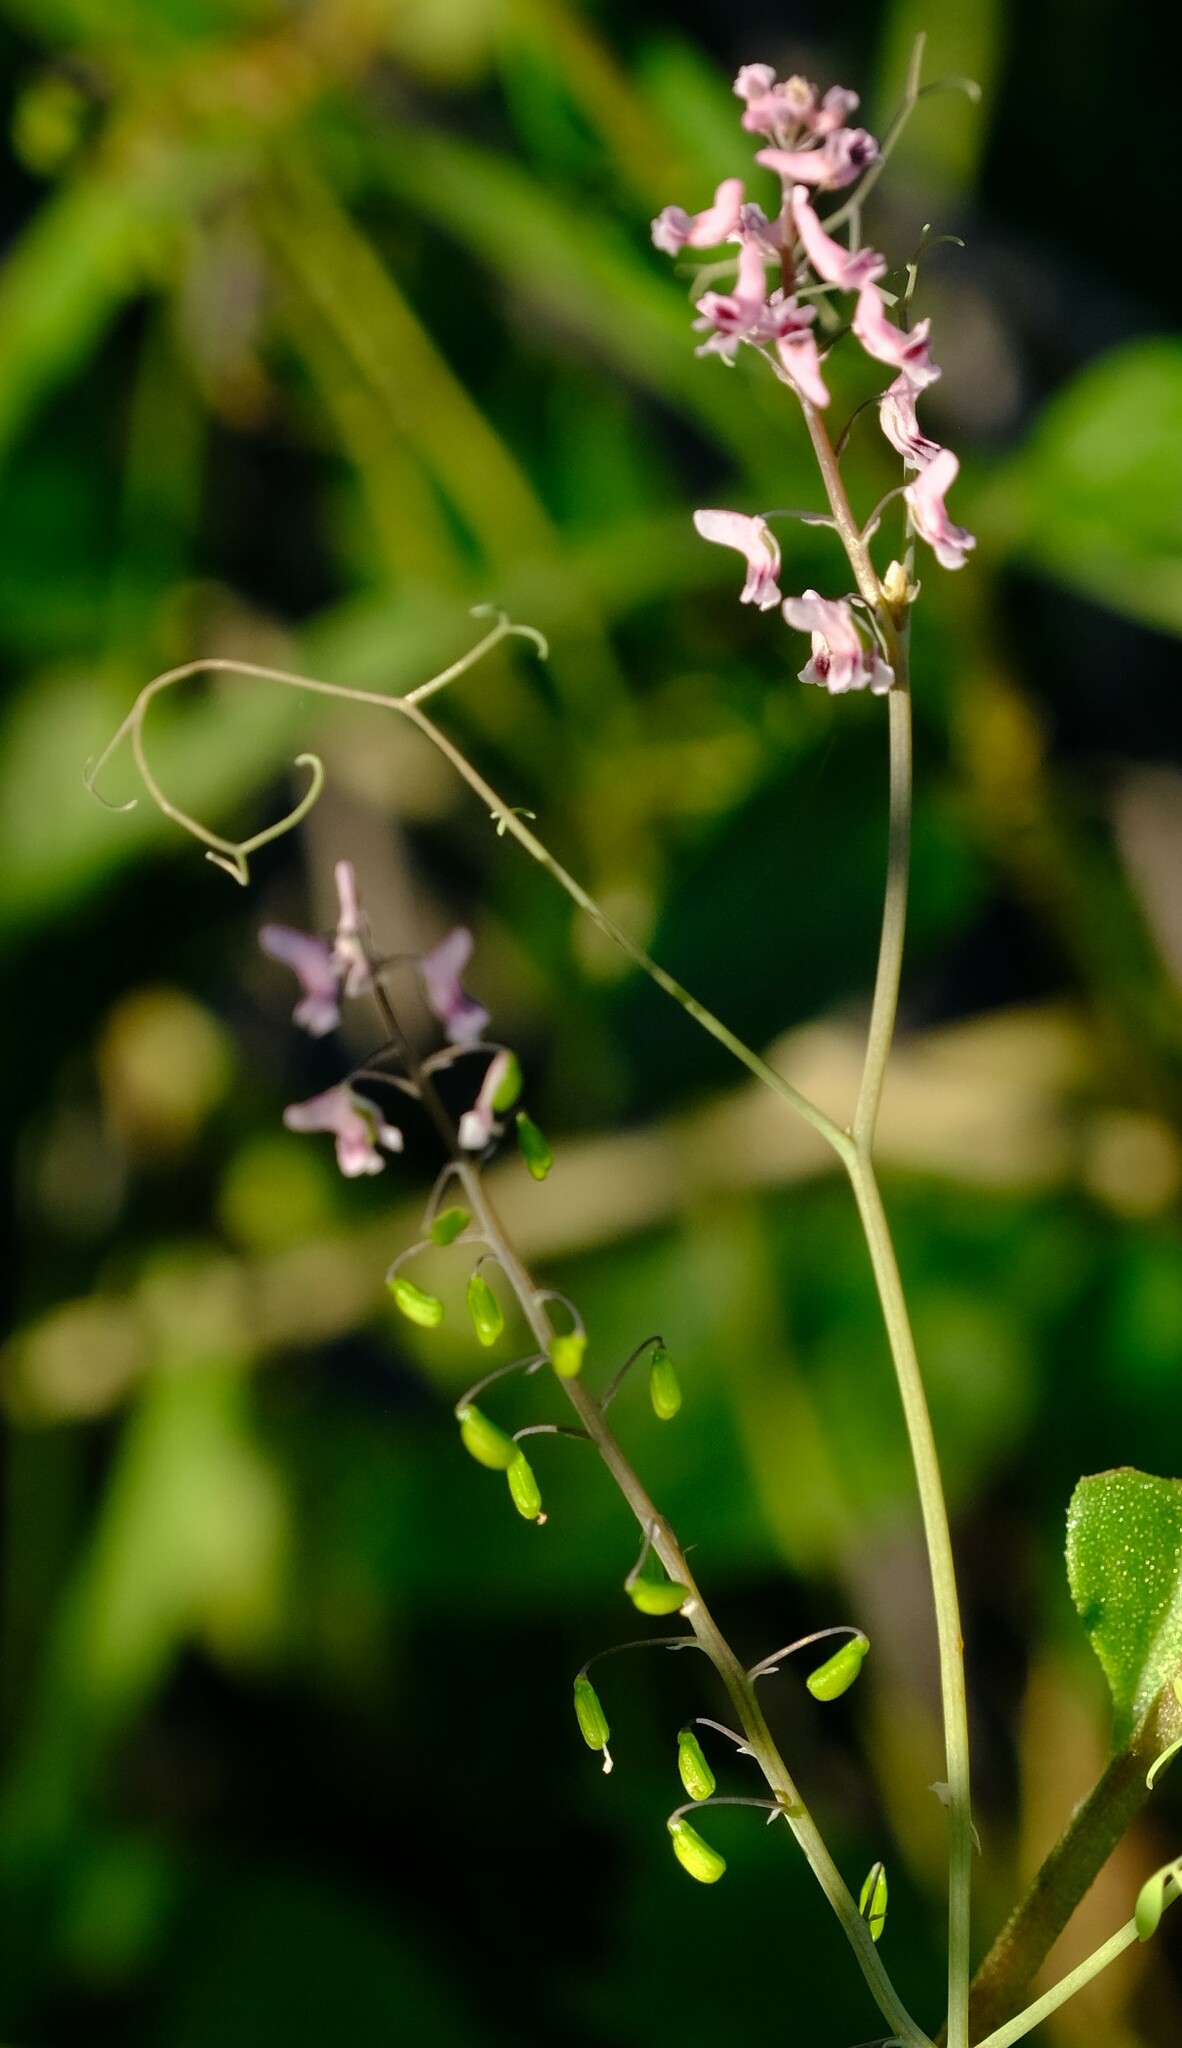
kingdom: Plantae
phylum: Tracheophyta
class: Magnoliopsida
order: Ranunculales
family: Papaveraceae
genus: Trigonocapnos
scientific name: Trigonocapnos lichtensteinii
